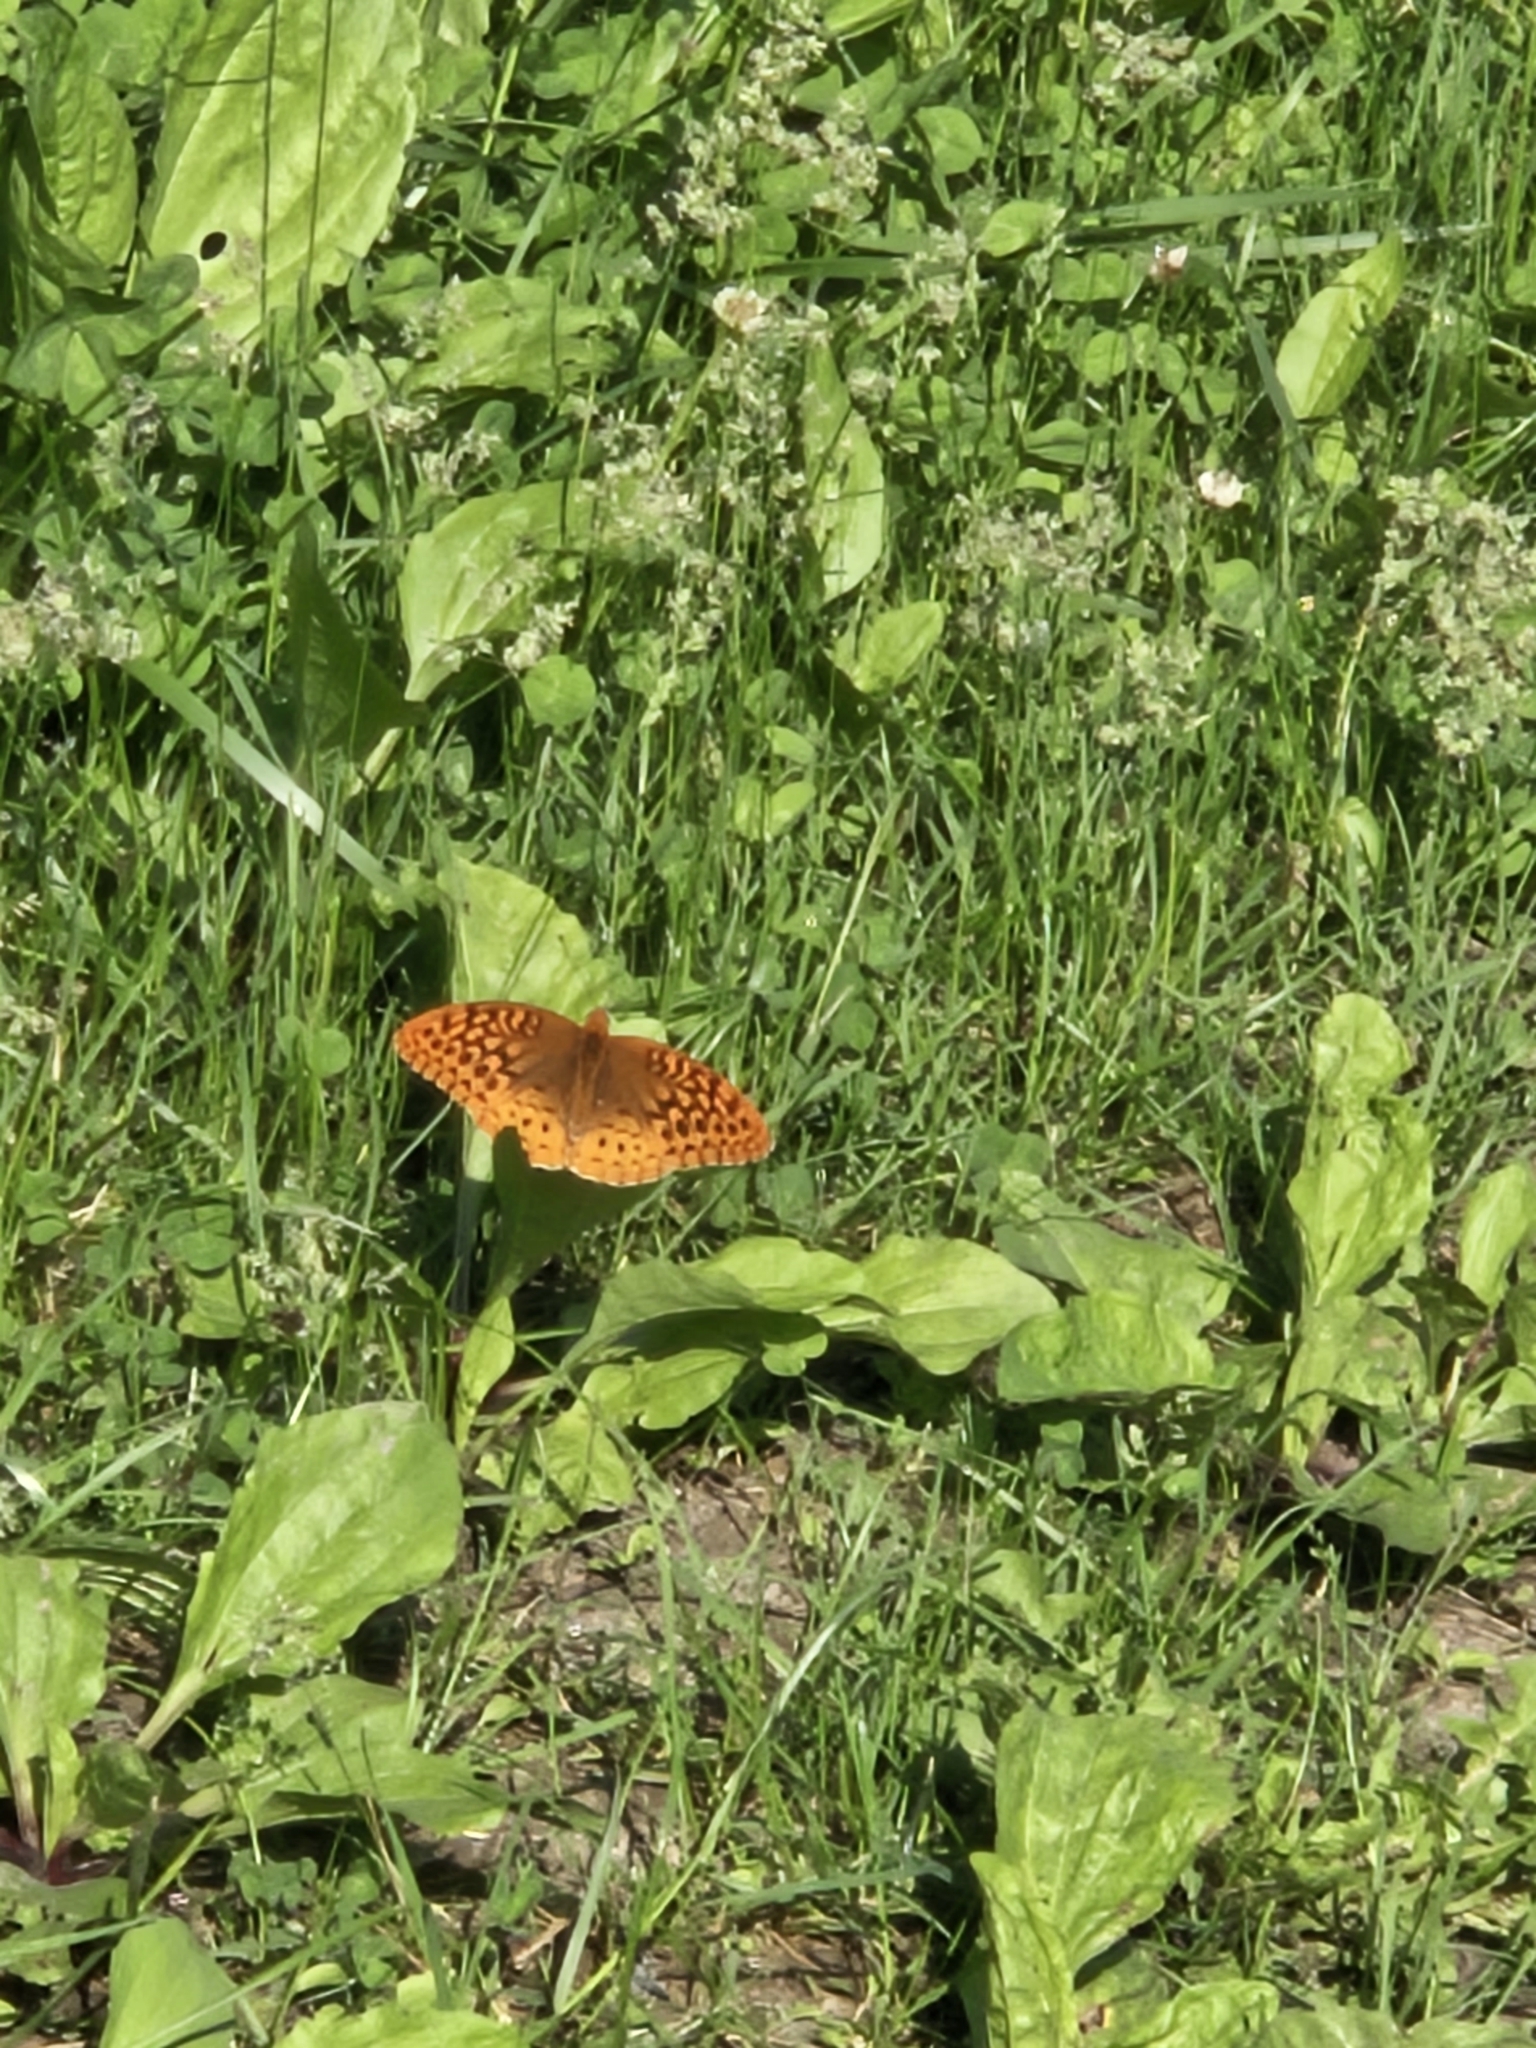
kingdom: Animalia
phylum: Arthropoda
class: Insecta
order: Lepidoptera
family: Nymphalidae
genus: Speyeria
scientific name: Speyeria cybele
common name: Great spangled fritillary
